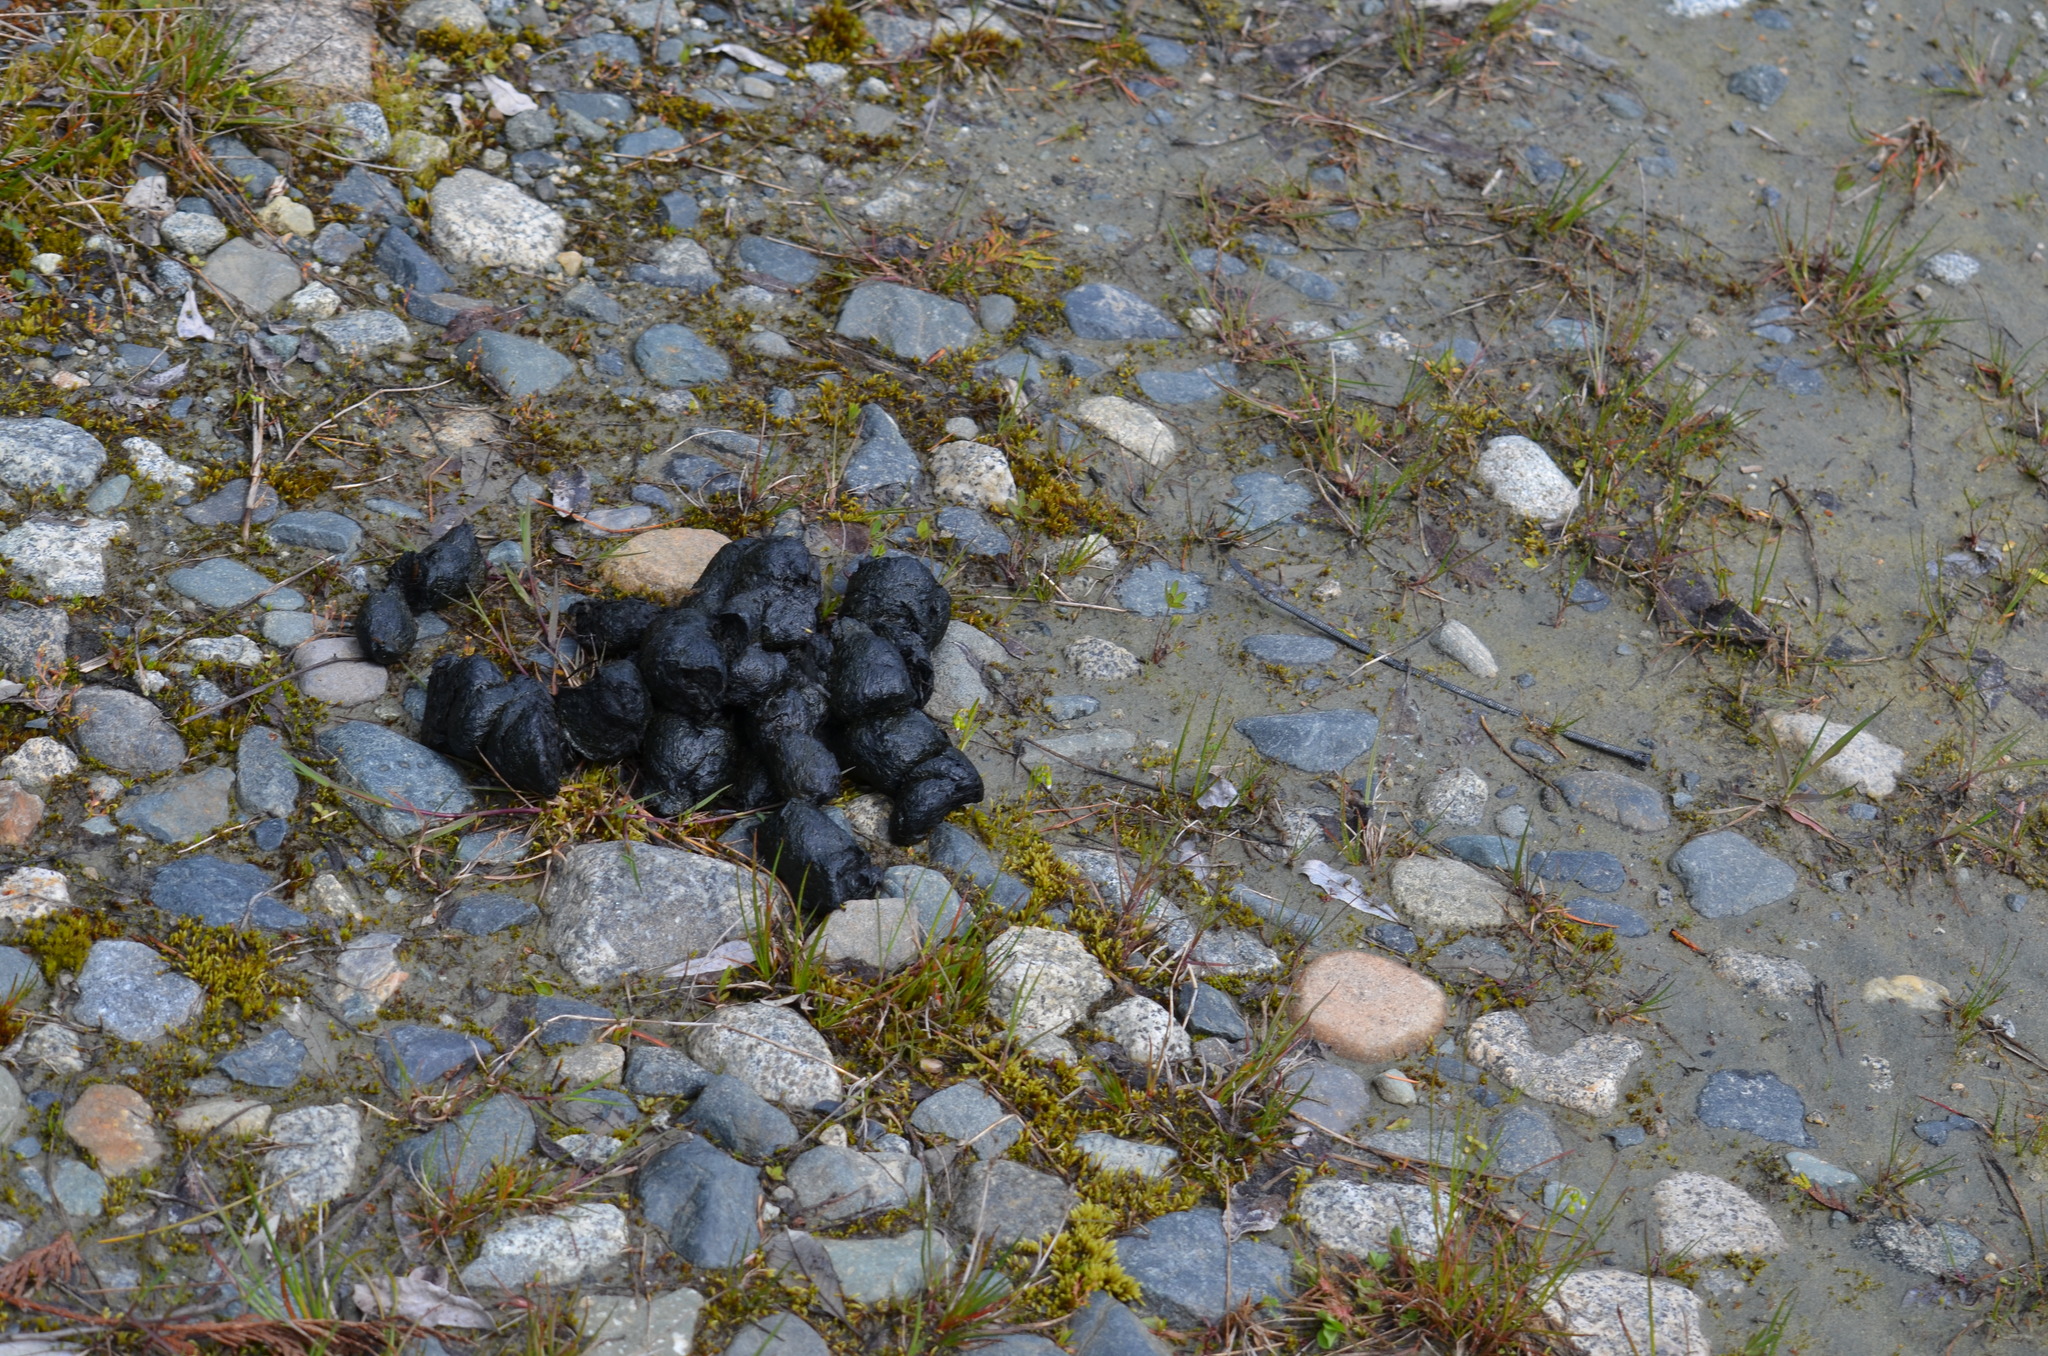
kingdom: Animalia
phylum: Chordata
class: Mammalia
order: Carnivora
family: Ursidae
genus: Ursus
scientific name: Ursus americanus
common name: American black bear
